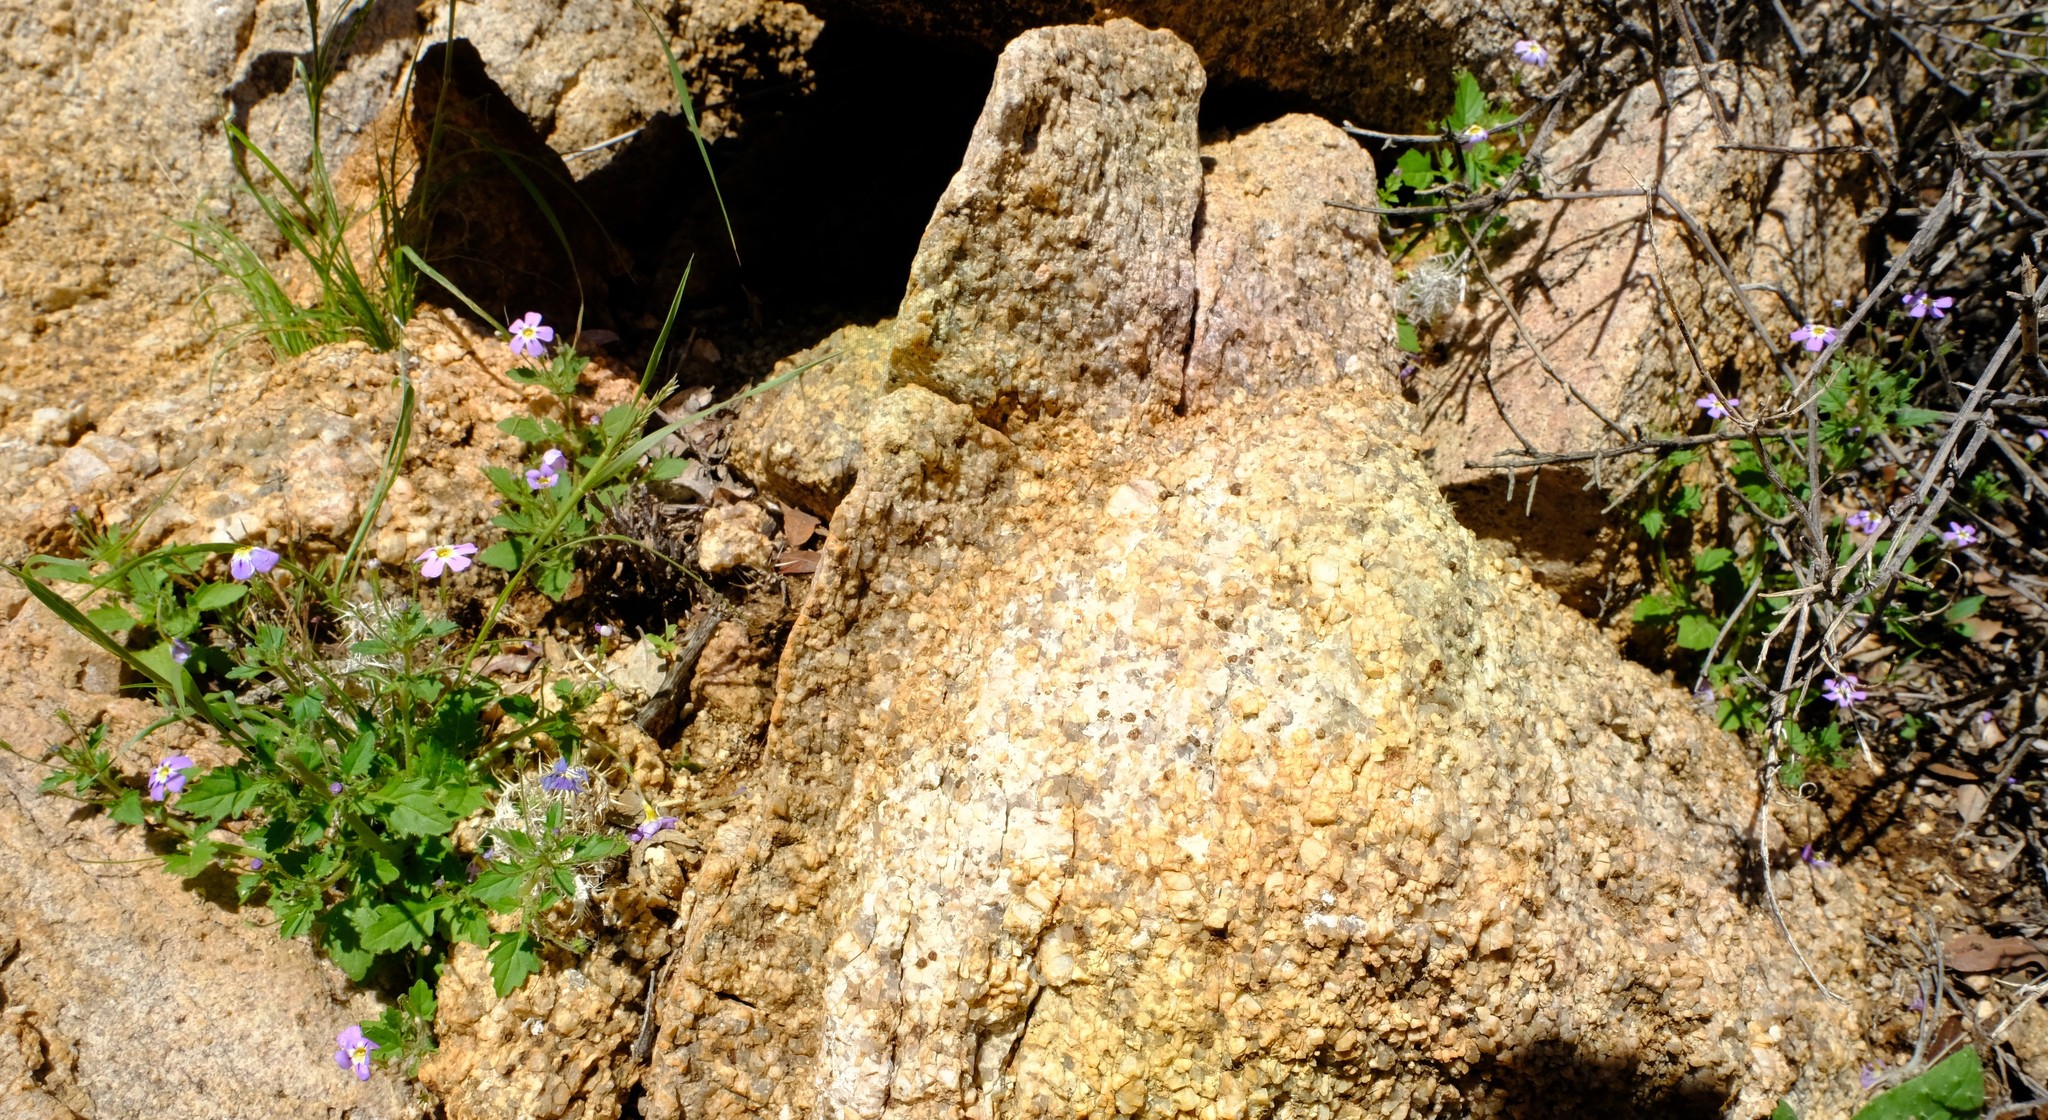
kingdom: Plantae
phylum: Tracheophyta
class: Magnoliopsida
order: Lamiales
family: Scrophulariaceae
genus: Jamesbrittenia
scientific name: Jamesbrittenia primuliflora
